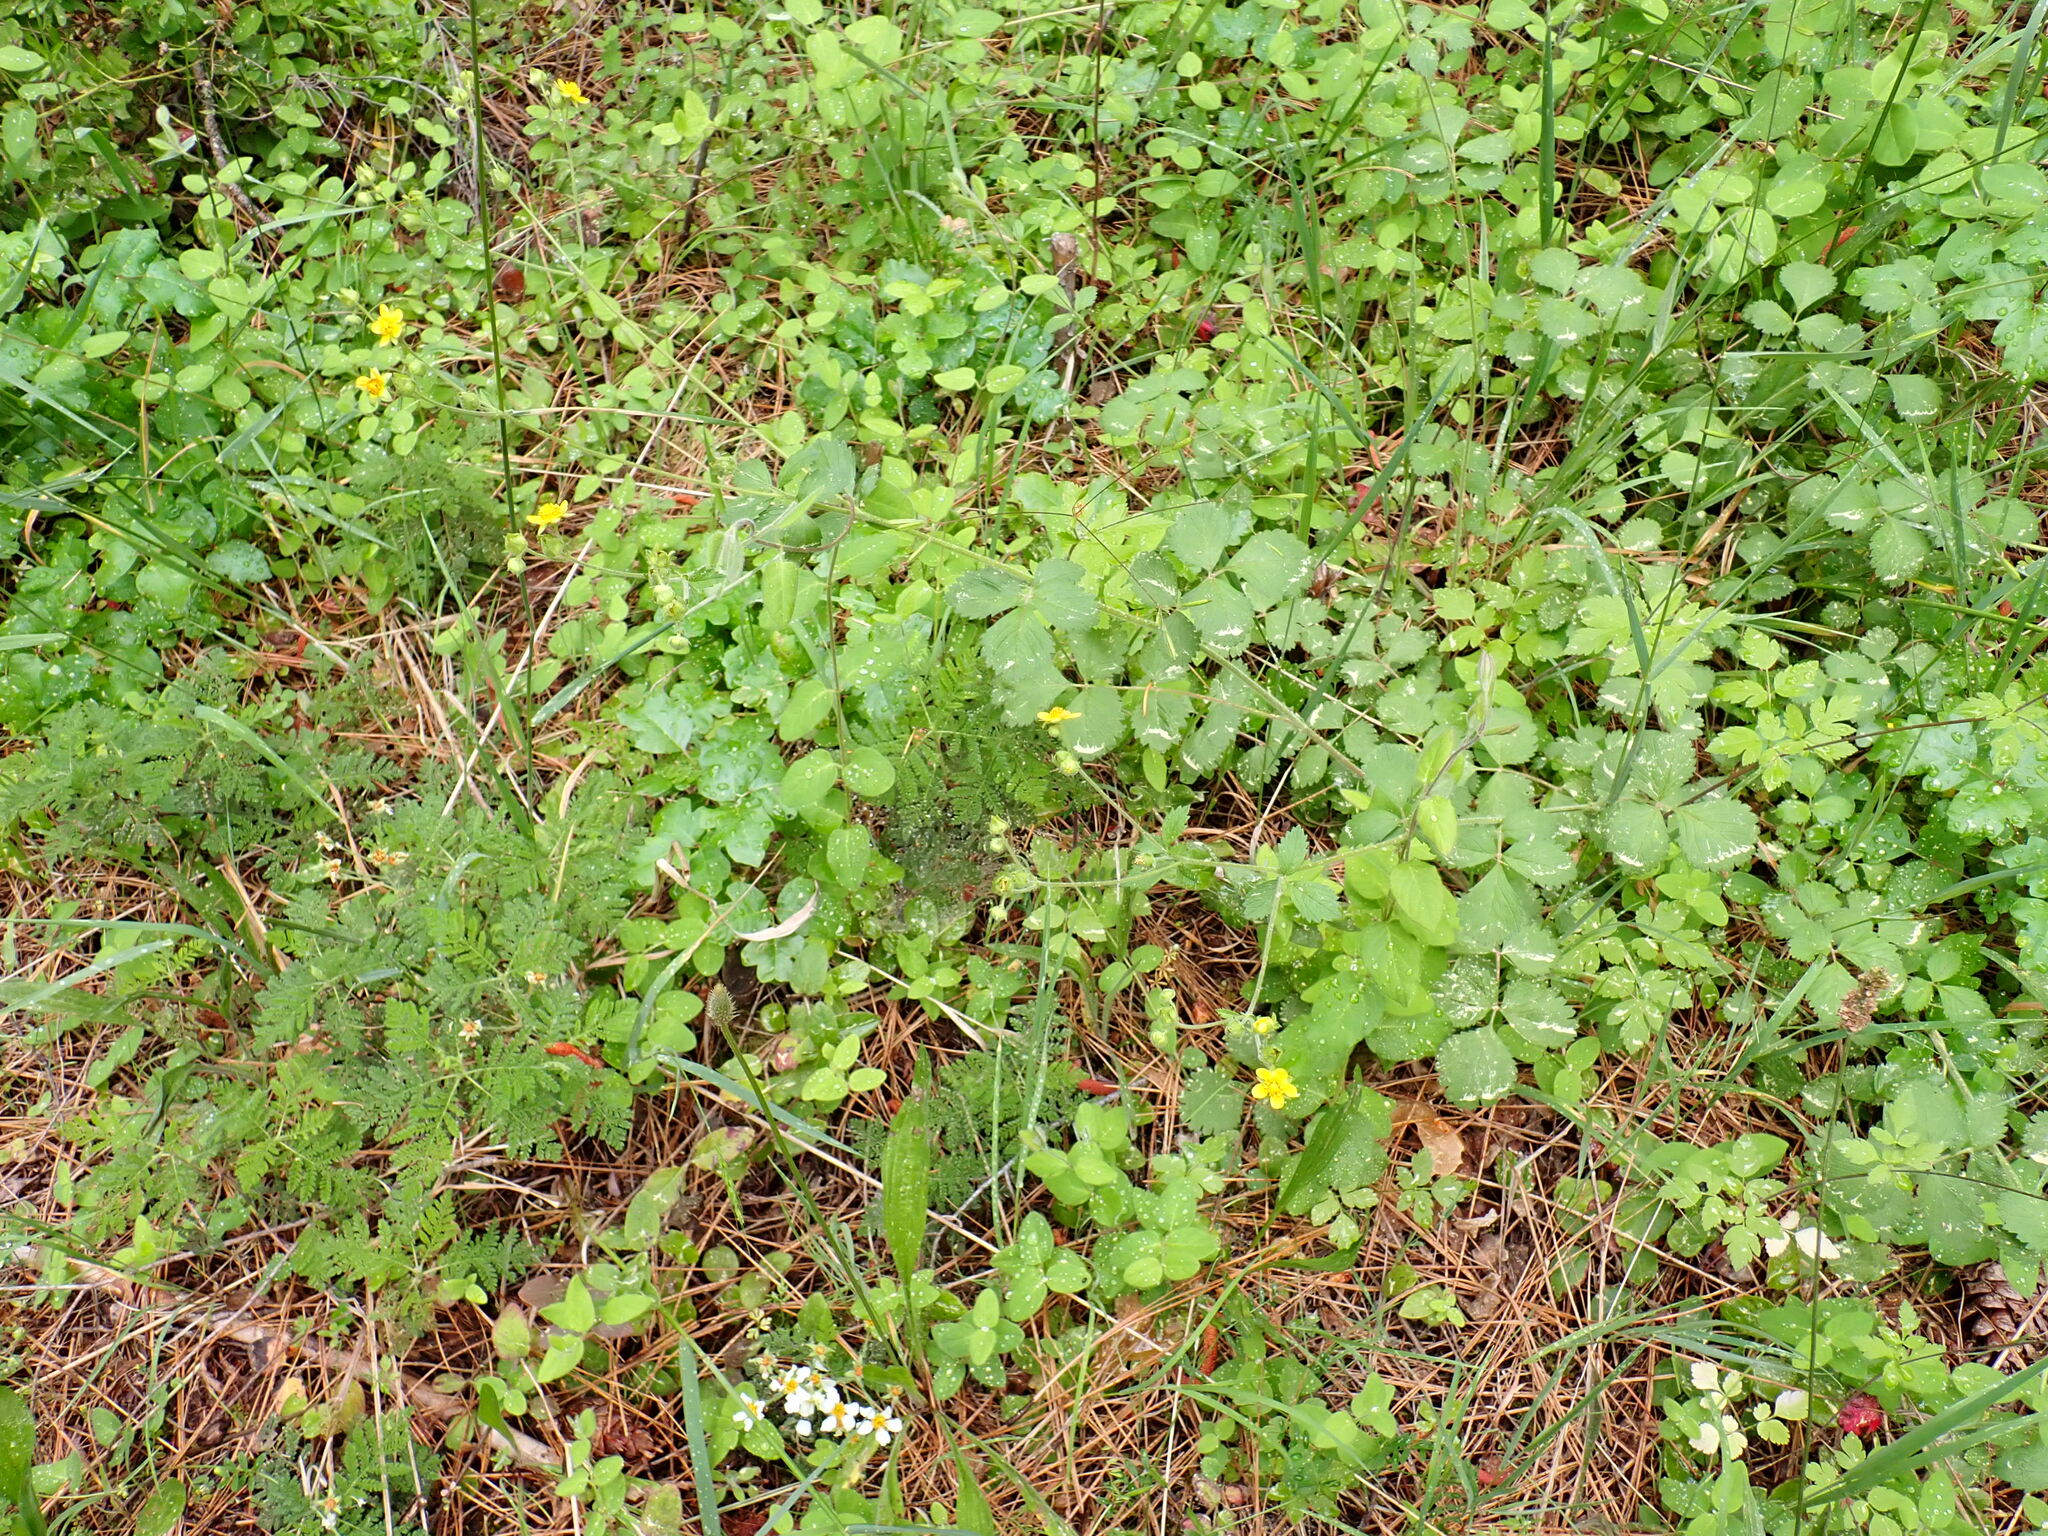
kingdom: Plantae
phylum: Tracheophyta
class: Magnoliopsida
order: Rosales
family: Rosaceae
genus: Drymocallis
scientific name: Drymocallis glandulosa
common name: Sticky cinquefoil
